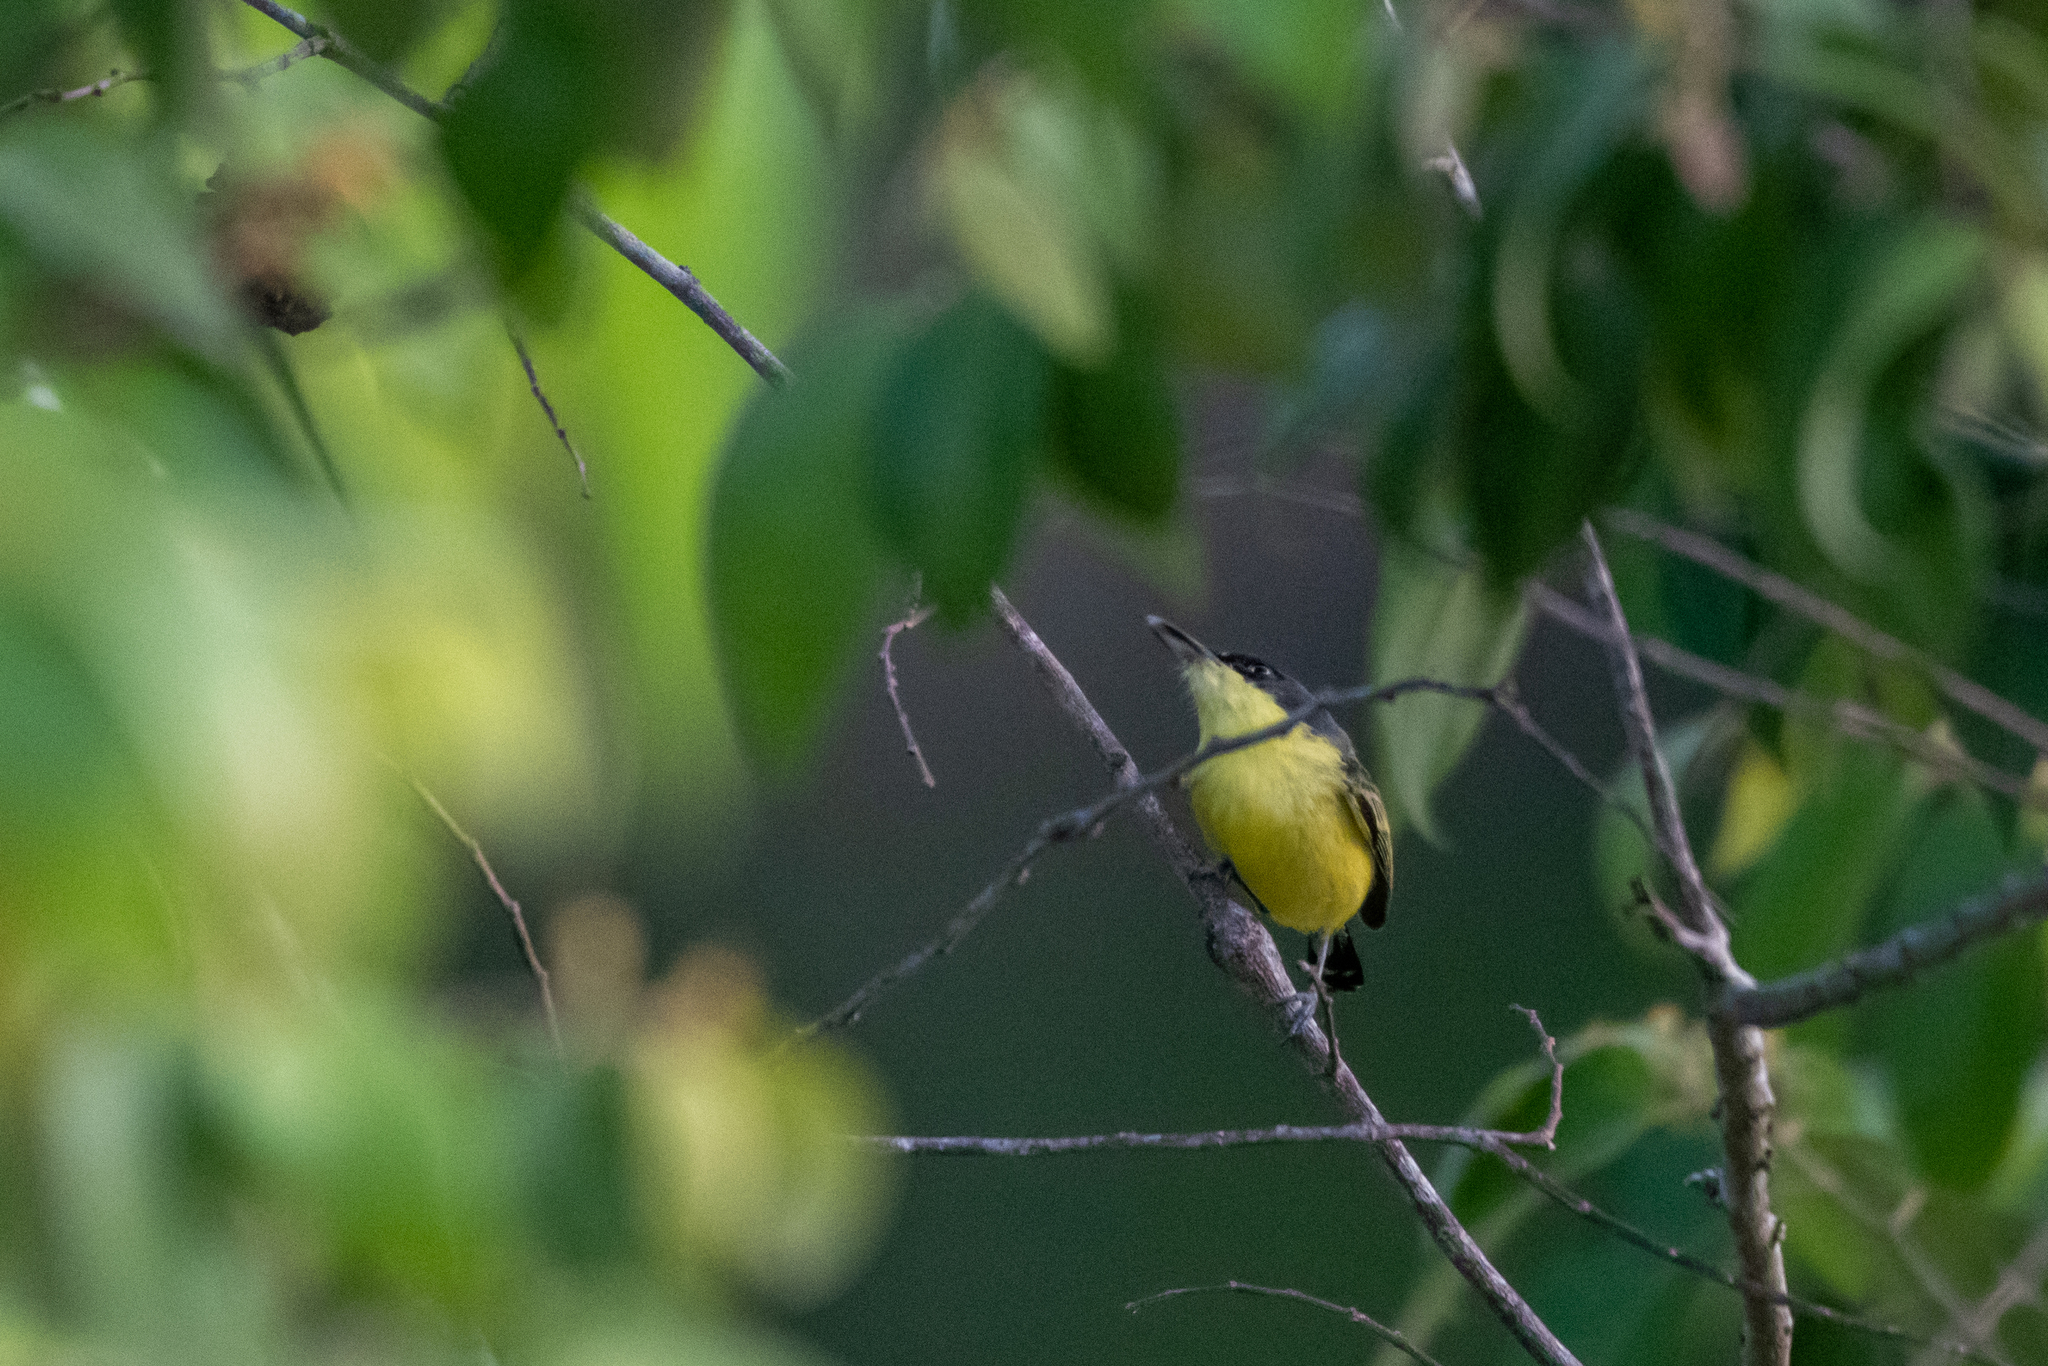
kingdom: Animalia
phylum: Chordata
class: Aves
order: Passeriformes
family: Tyrannidae
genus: Todirostrum
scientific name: Todirostrum cinereum
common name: Common tody-flycatcher
